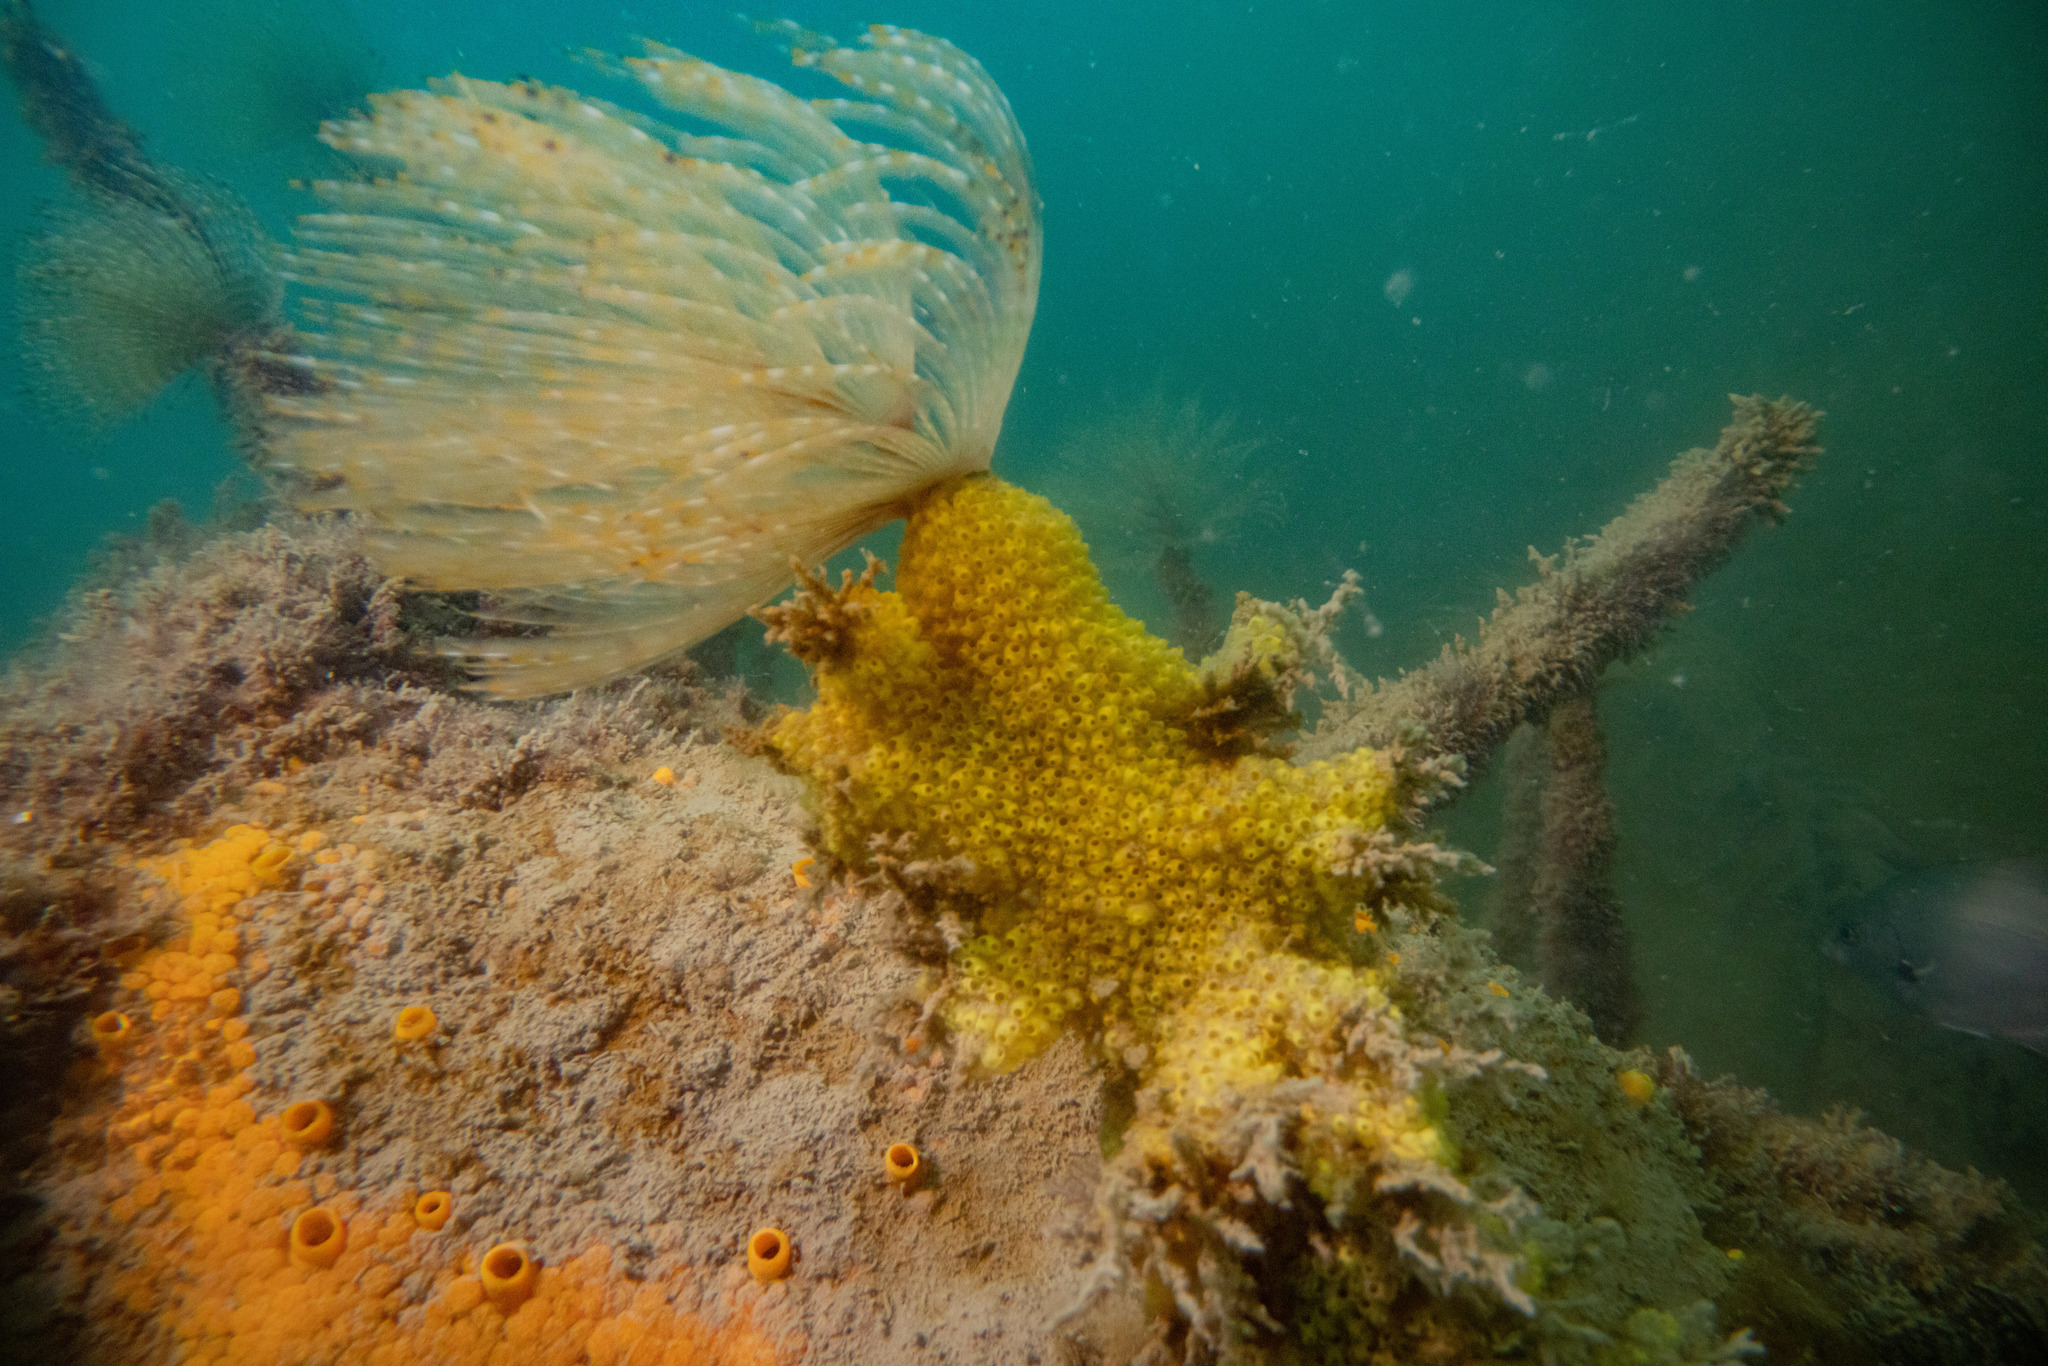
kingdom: Animalia
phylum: Chordata
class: Ascidiacea
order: Stolidobranchia
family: Styelidae
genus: Symplegma
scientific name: Symplegma brakenhielmi
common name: Ascidian
